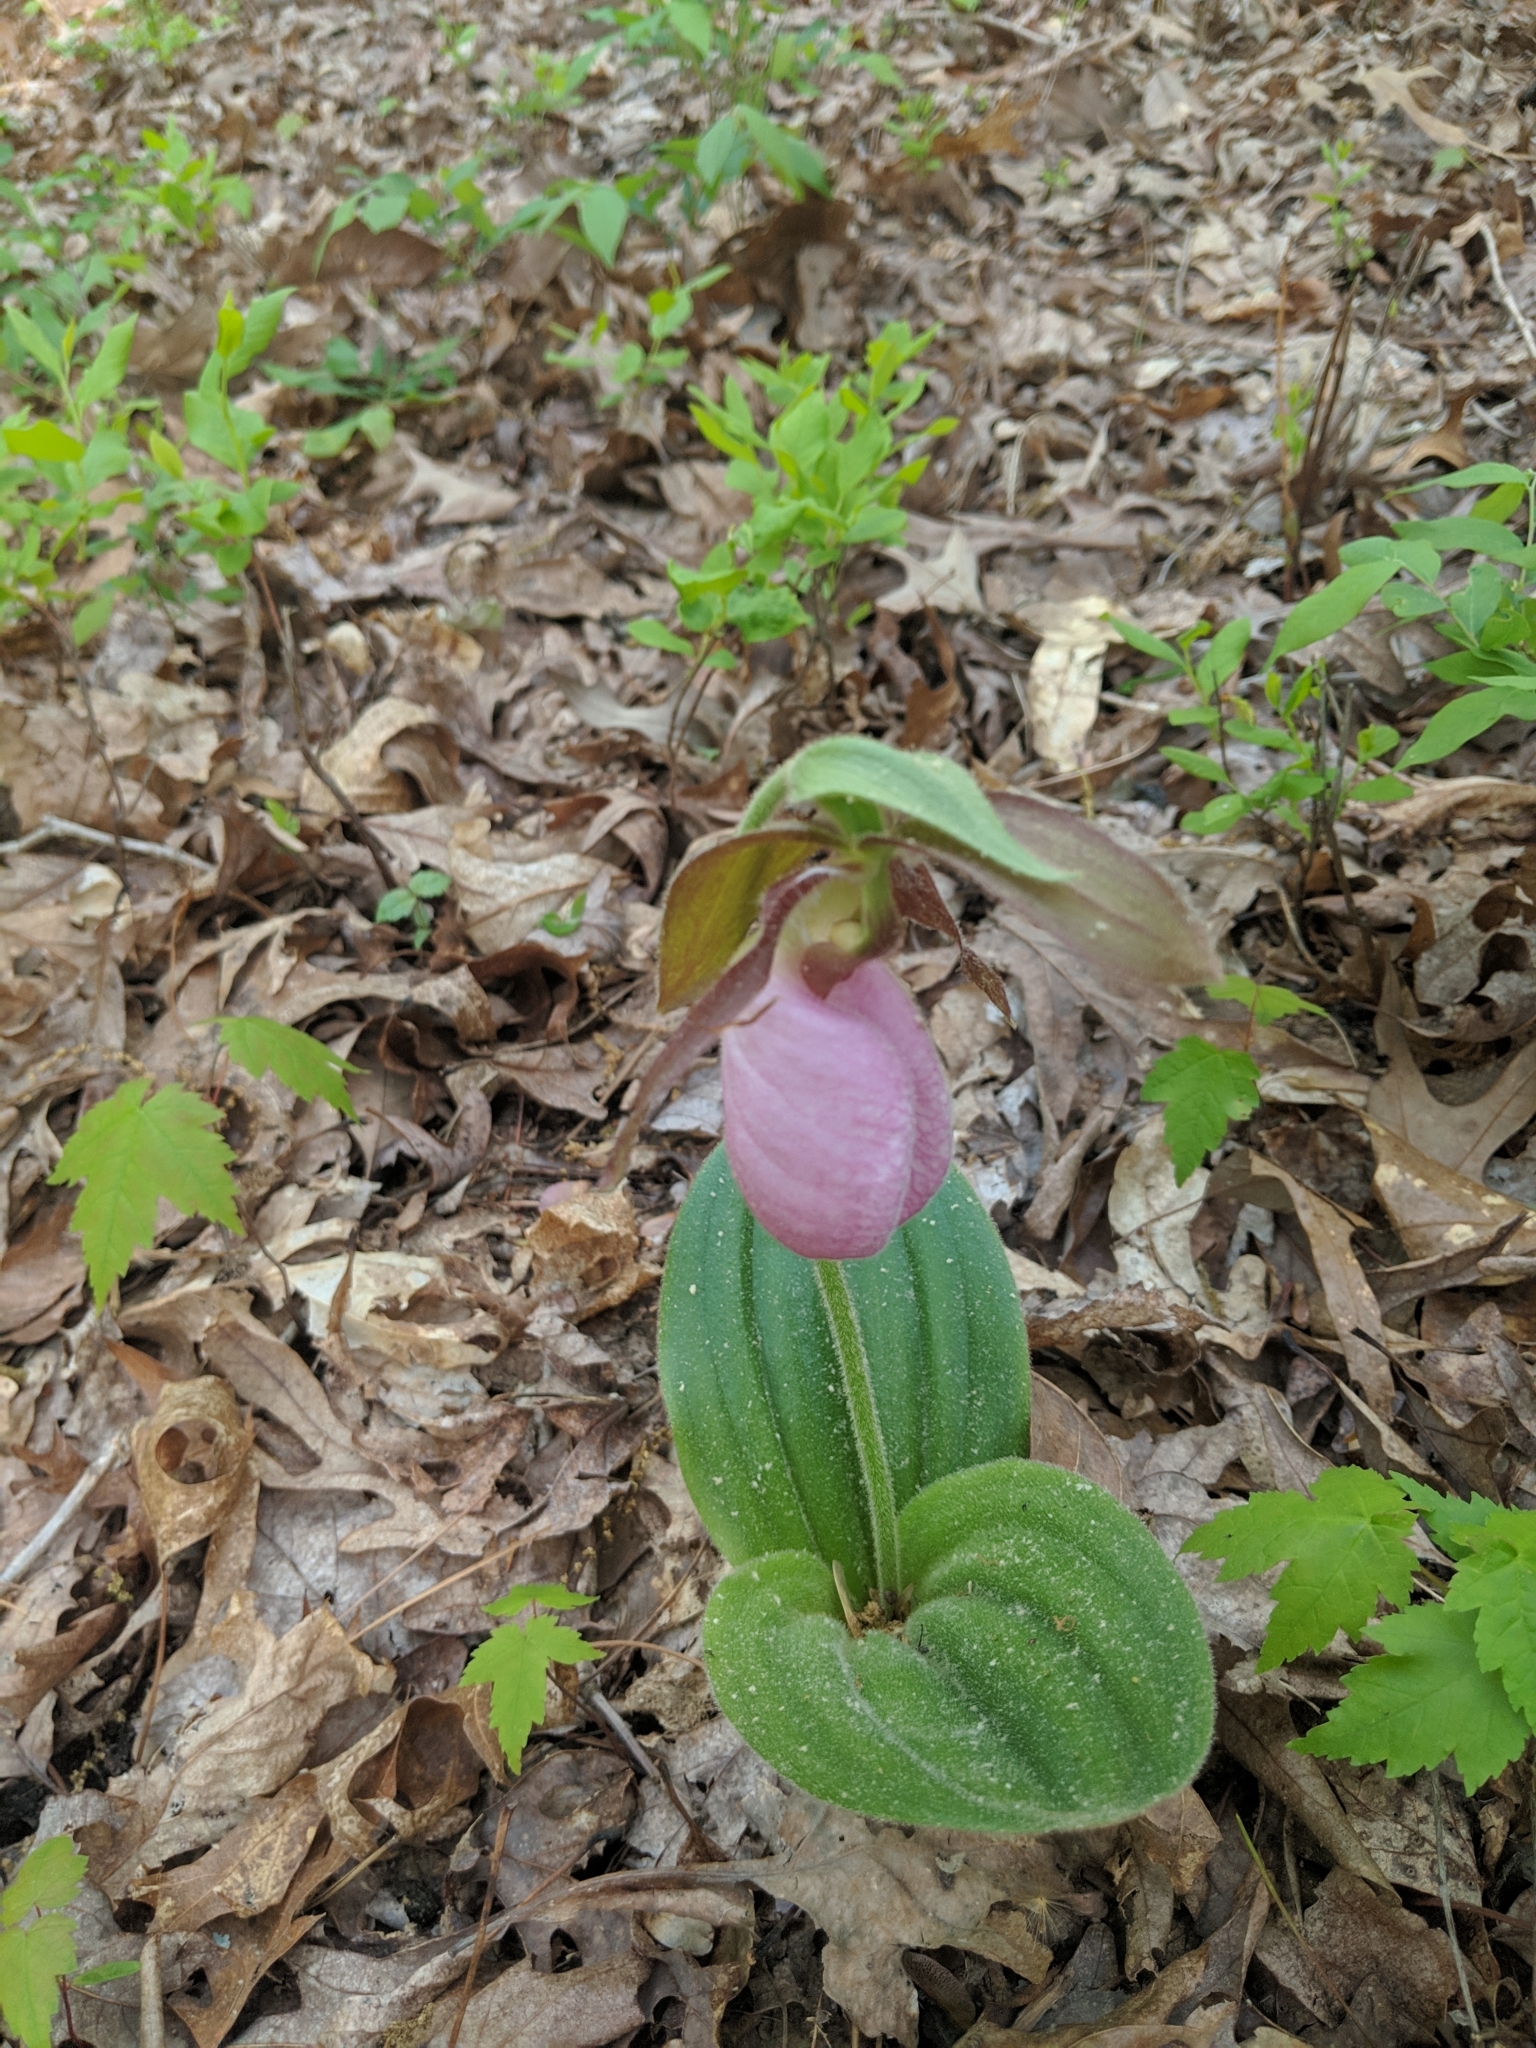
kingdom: Plantae
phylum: Tracheophyta
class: Liliopsida
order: Asparagales
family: Orchidaceae
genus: Cypripedium
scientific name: Cypripedium acaule
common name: Pink lady's-slipper
